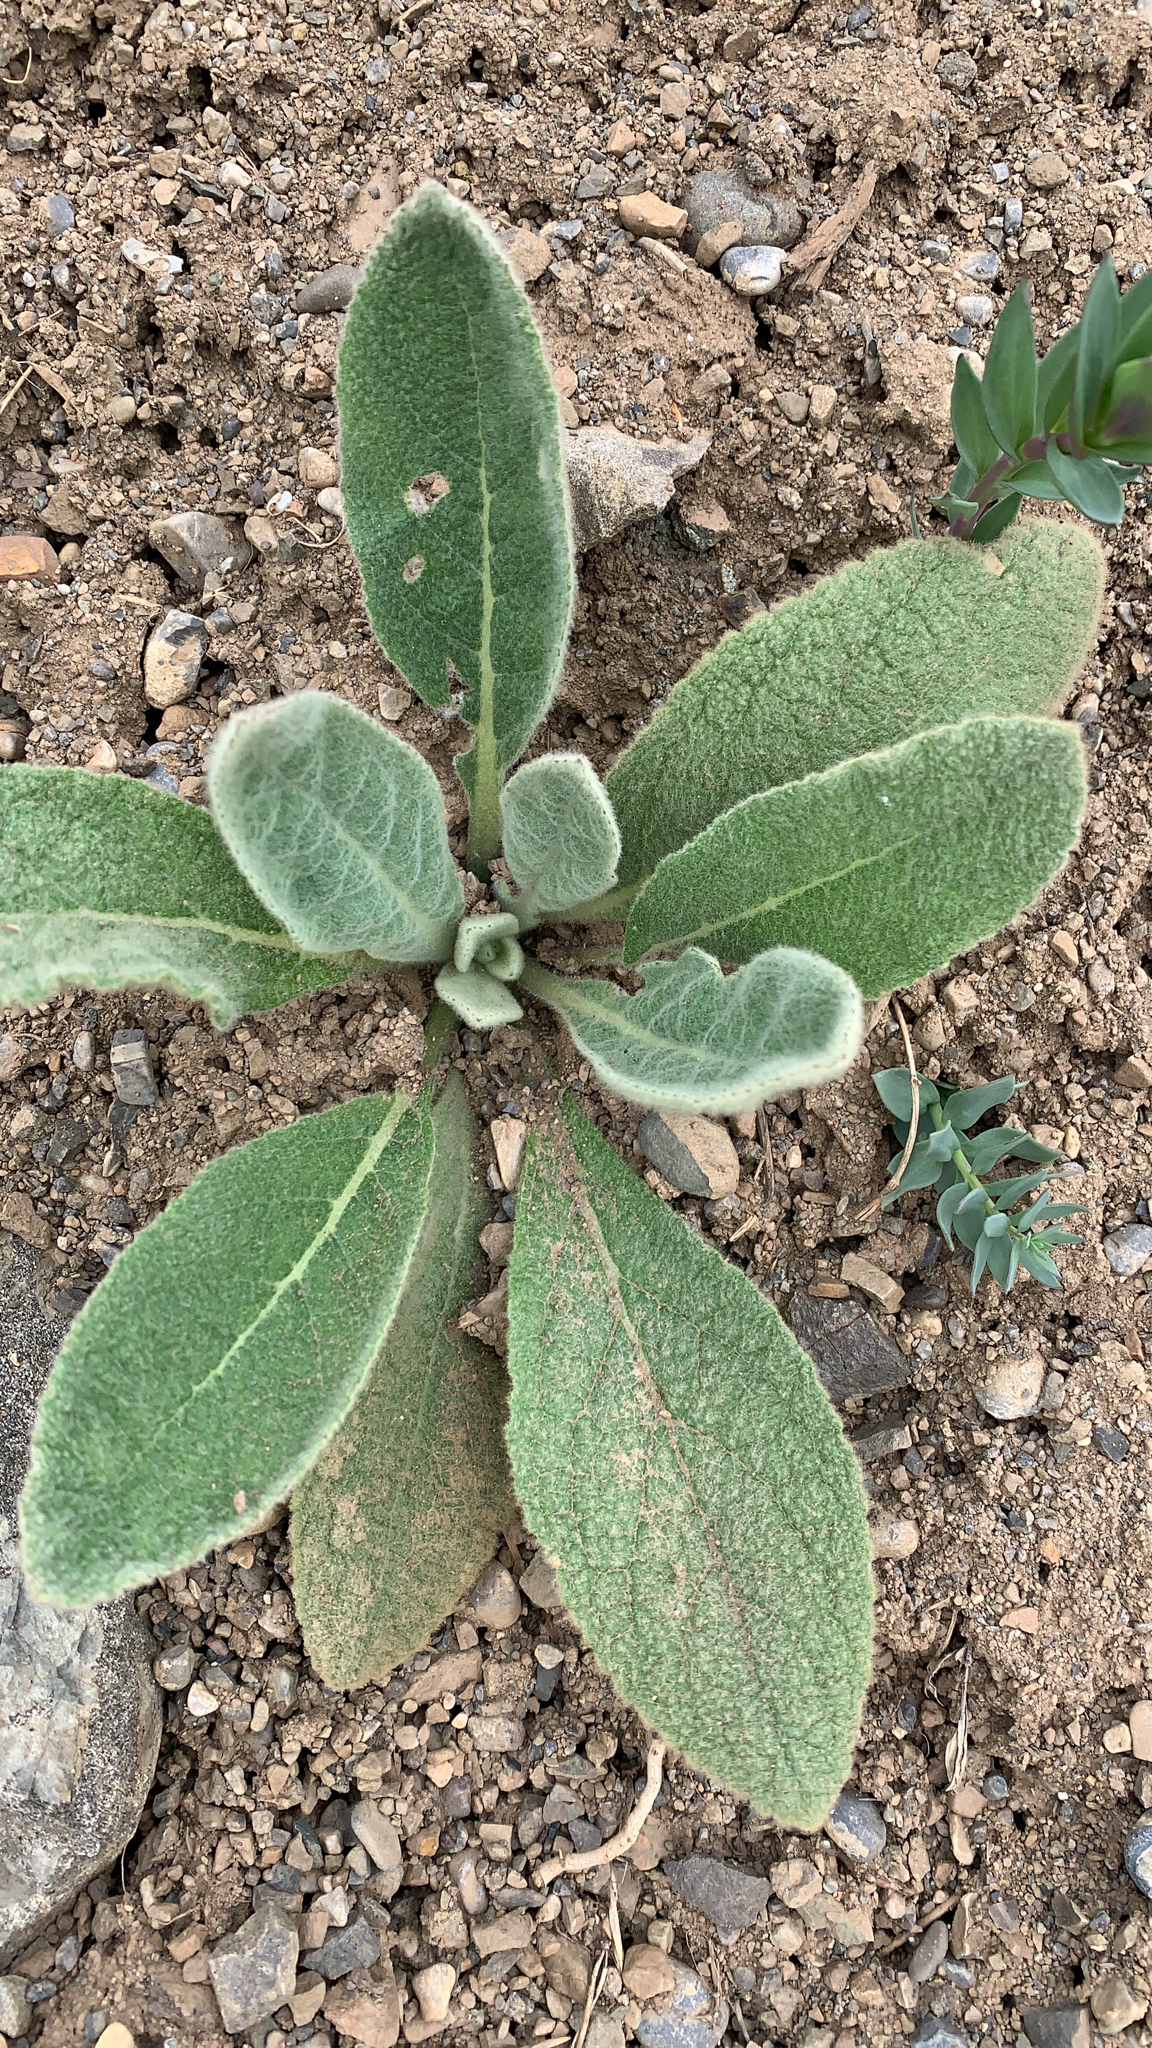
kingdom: Plantae
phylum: Tracheophyta
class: Magnoliopsida
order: Lamiales
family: Scrophulariaceae
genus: Verbascum
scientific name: Verbascum thapsus
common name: Common mullein
